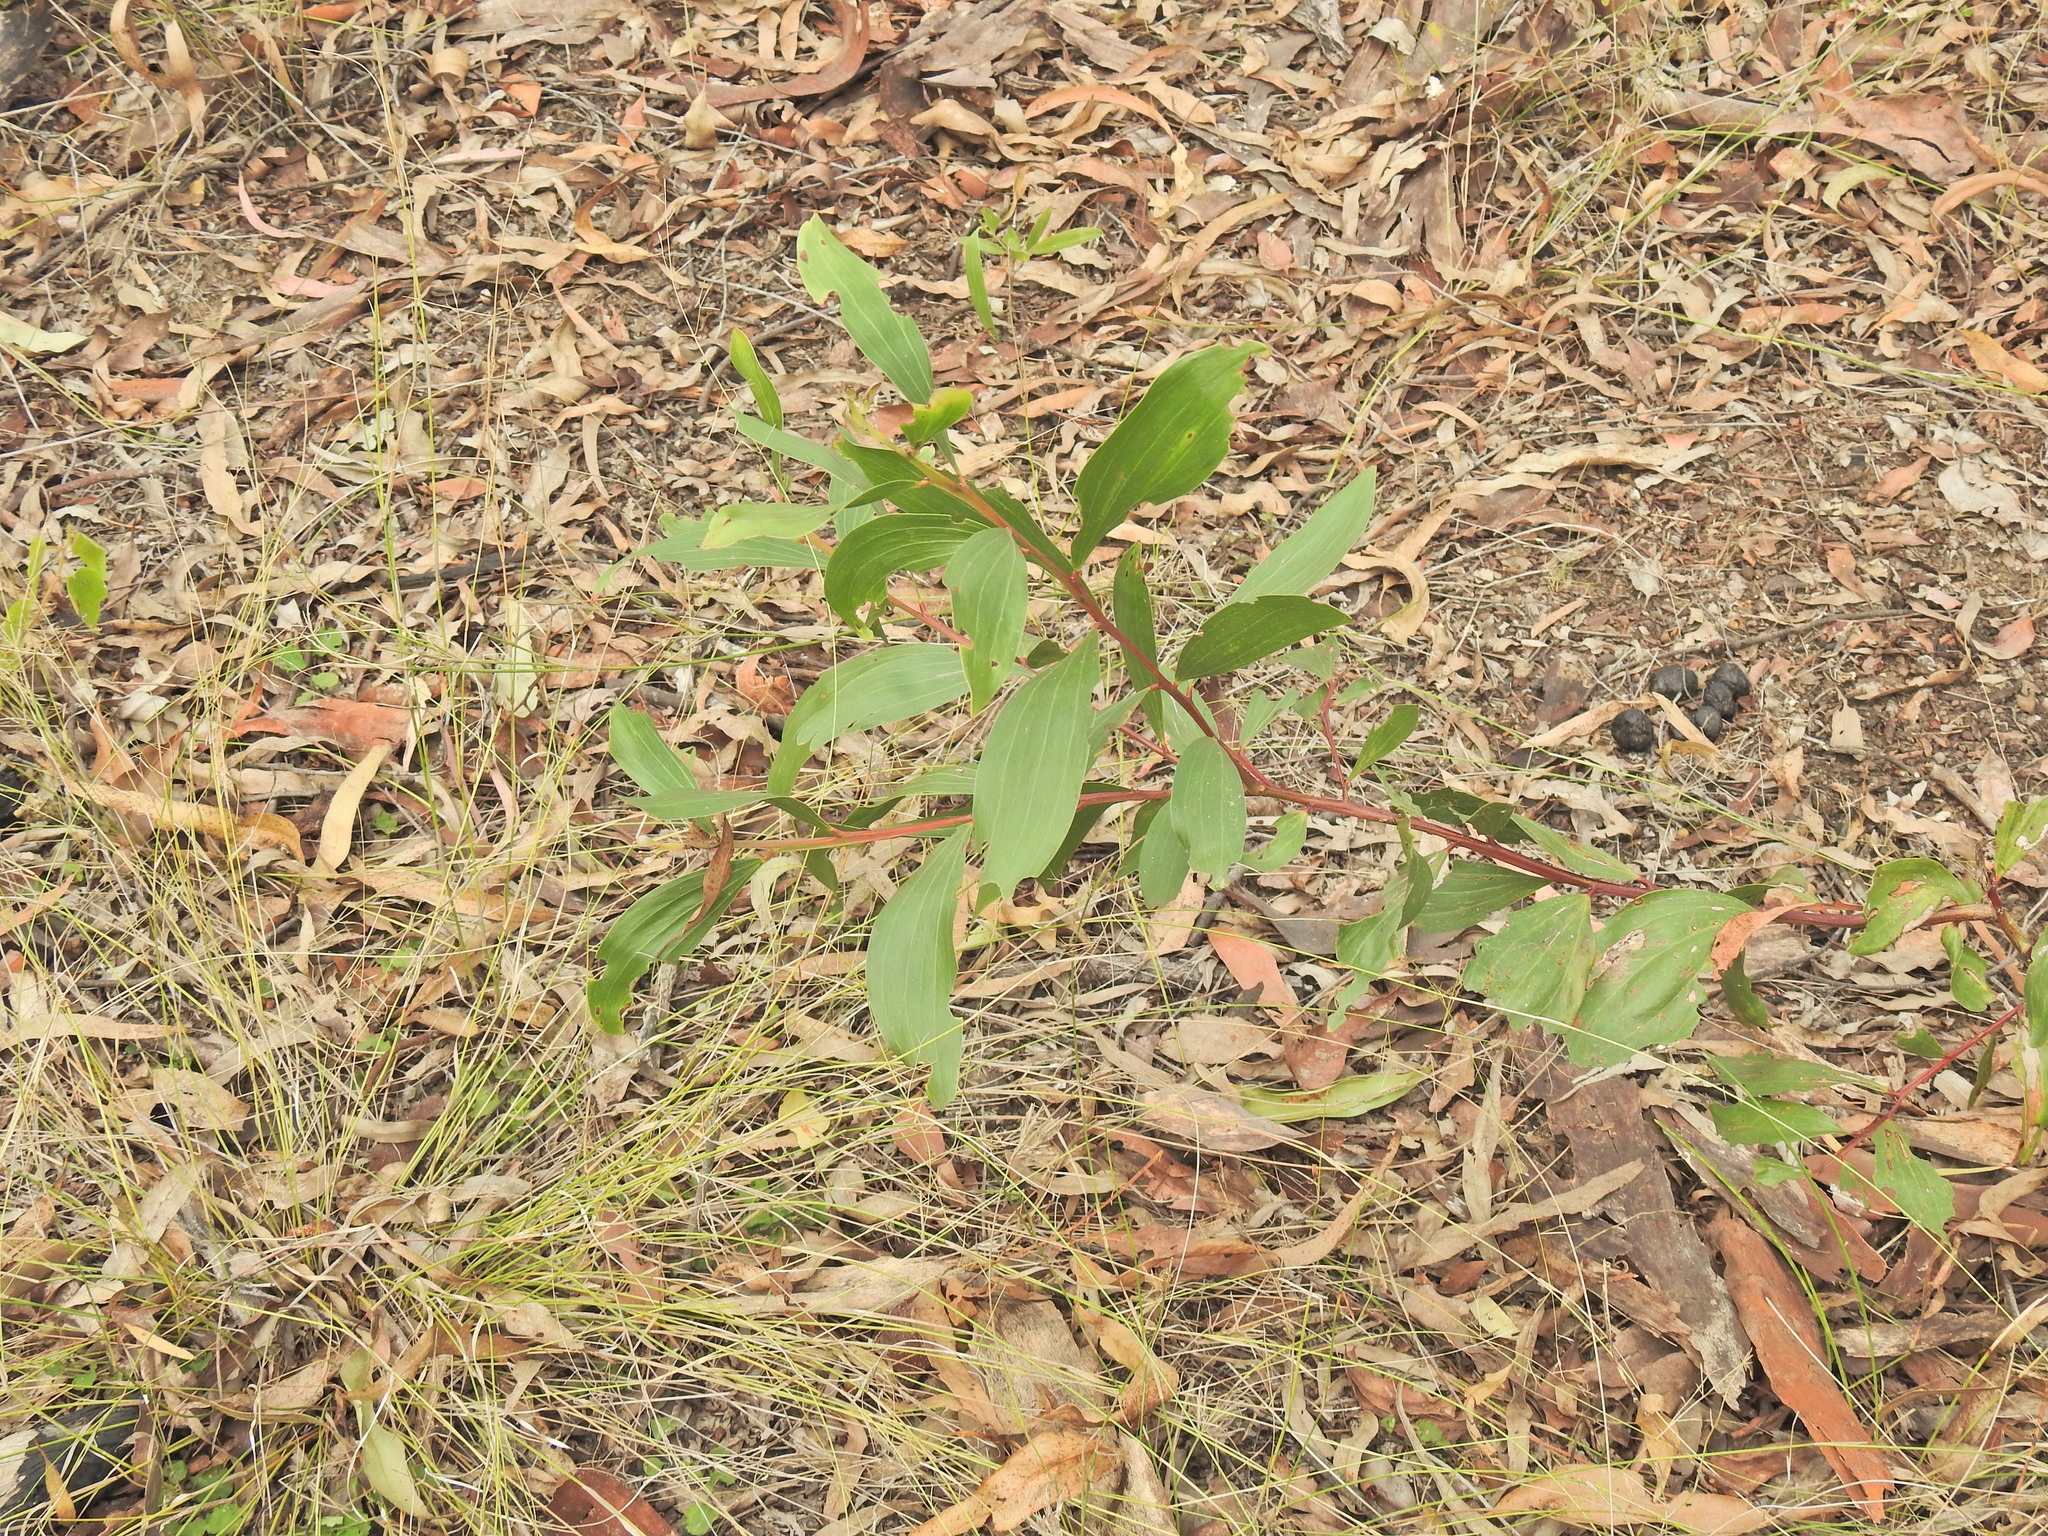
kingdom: Plantae
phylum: Tracheophyta
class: Magnoliopsida
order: Fabales
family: Fabaceae
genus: Acacia
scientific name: Acacia leiocalyx
